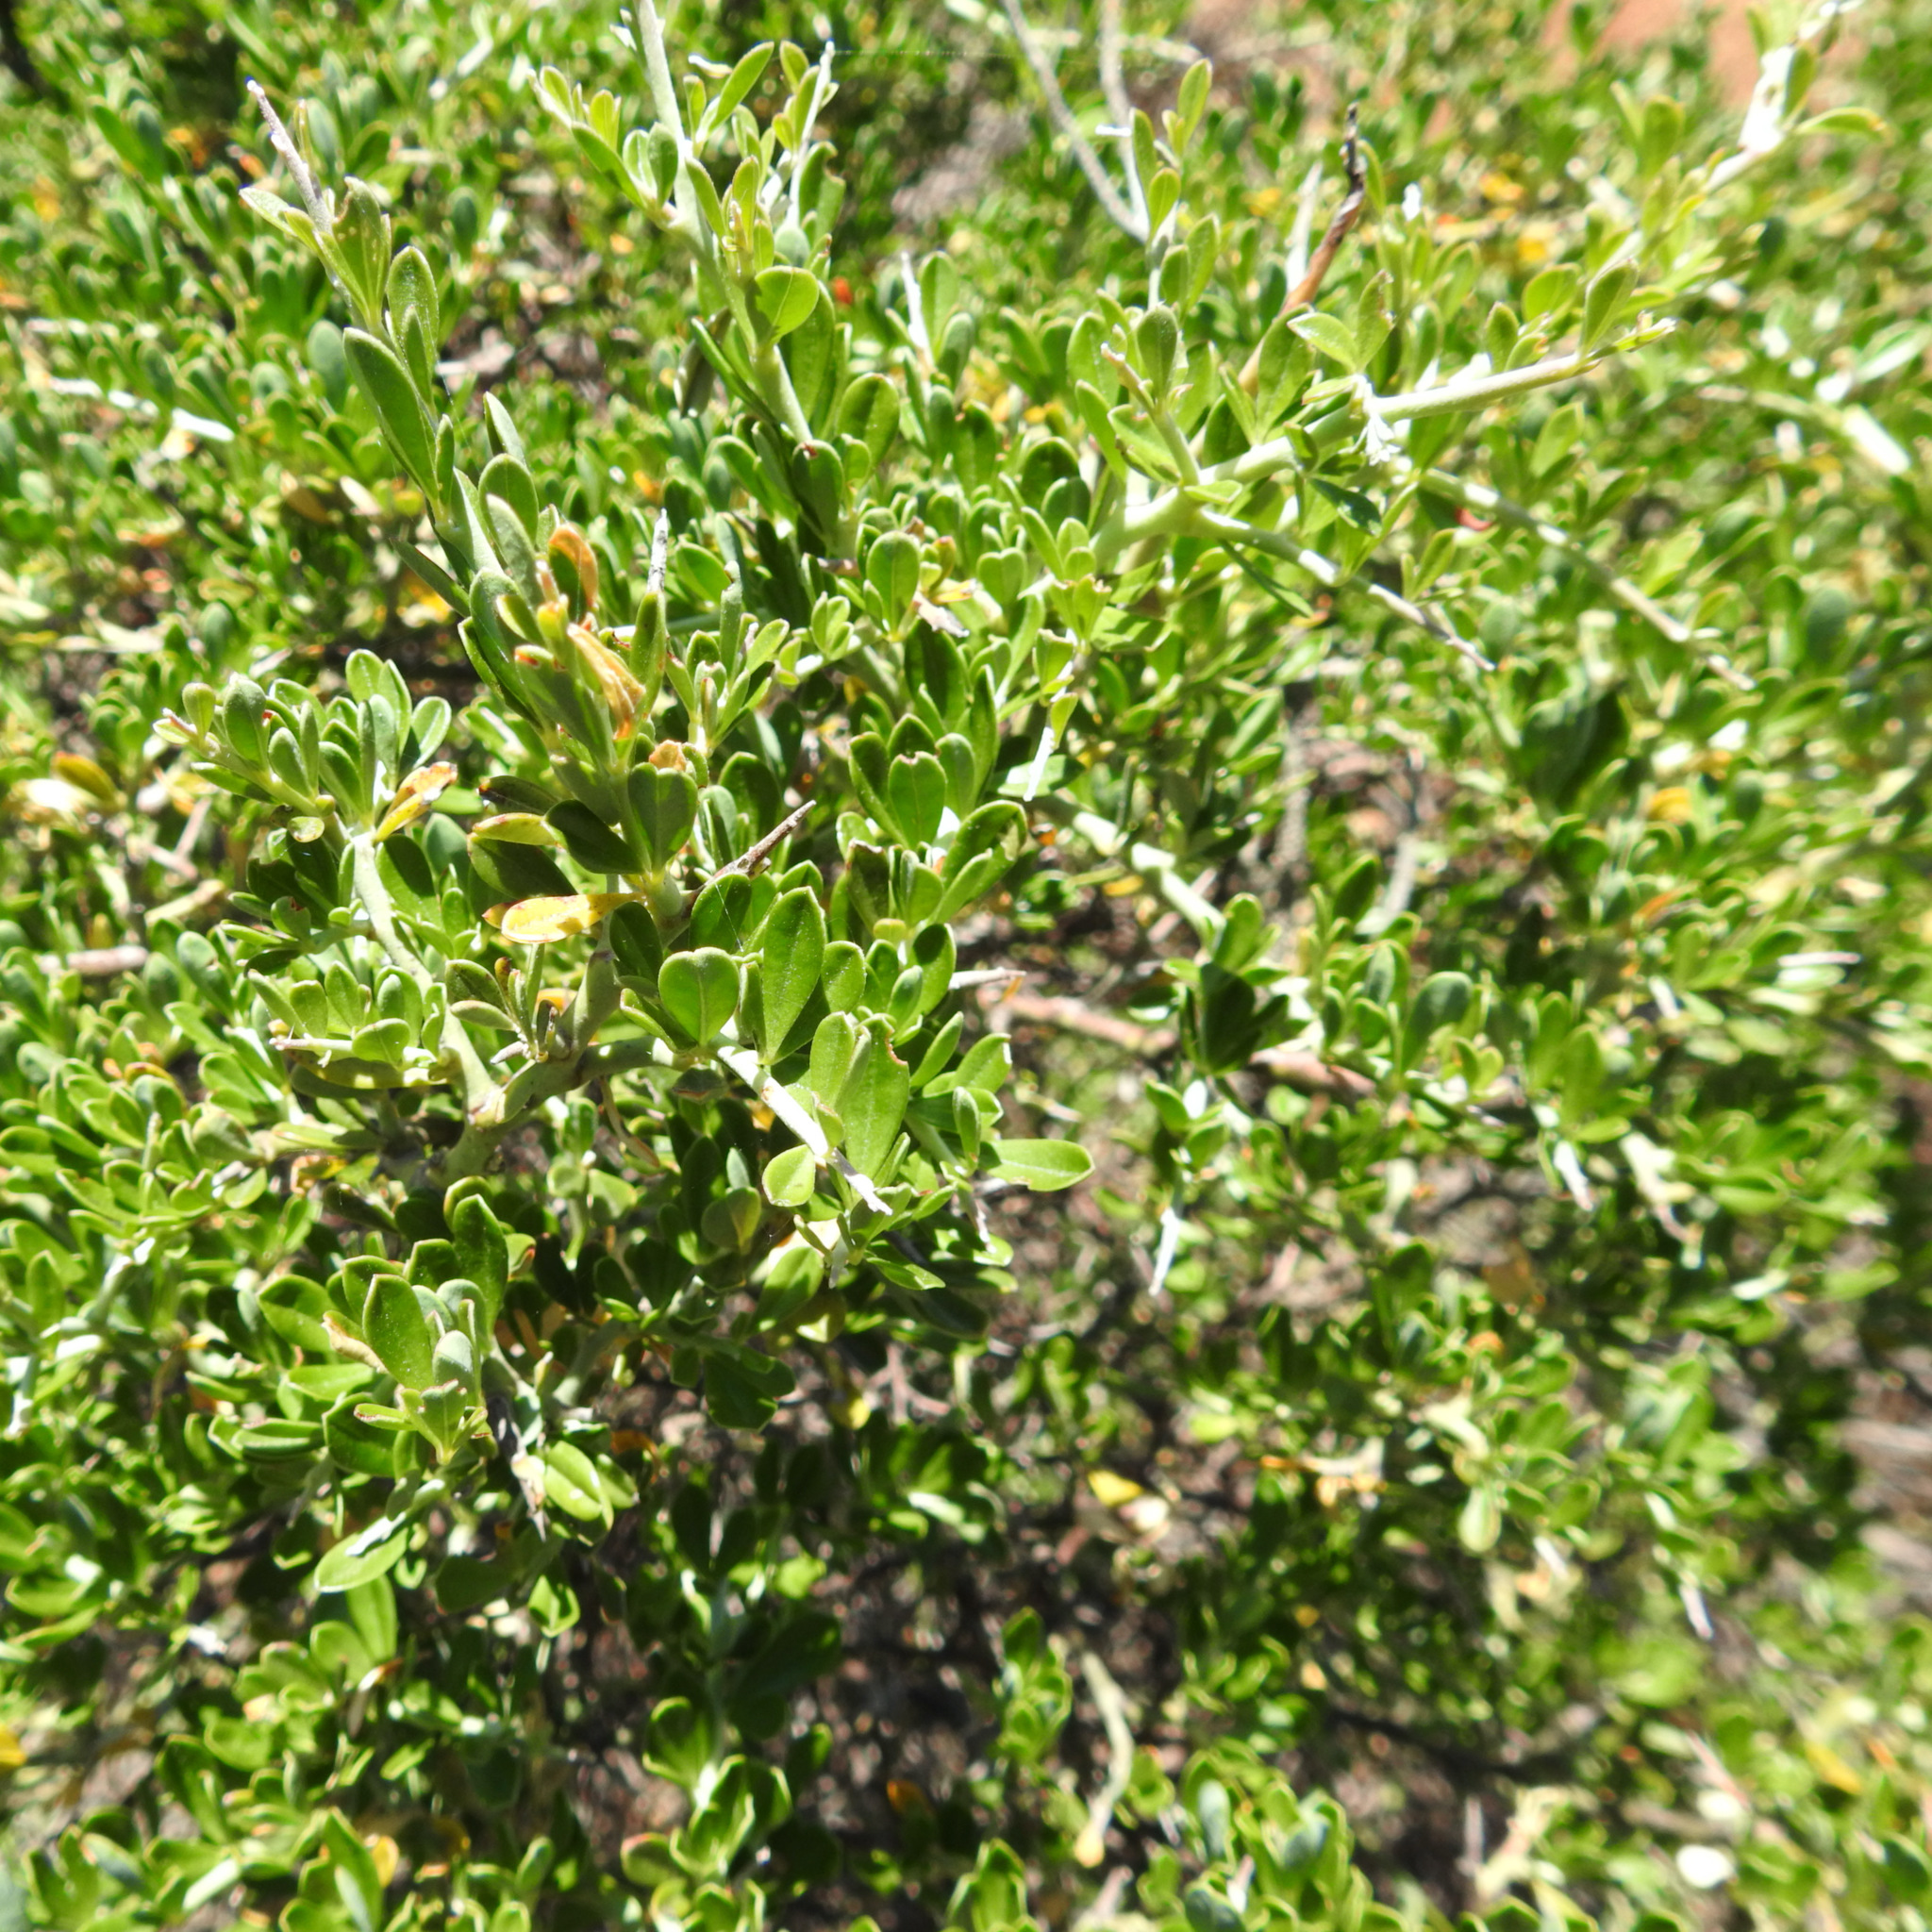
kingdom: Plantae
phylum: Tracheophyta
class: Magnoliopsida
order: Fabales
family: Fabaceae
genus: Pickeringia
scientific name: Pickeringia montana
